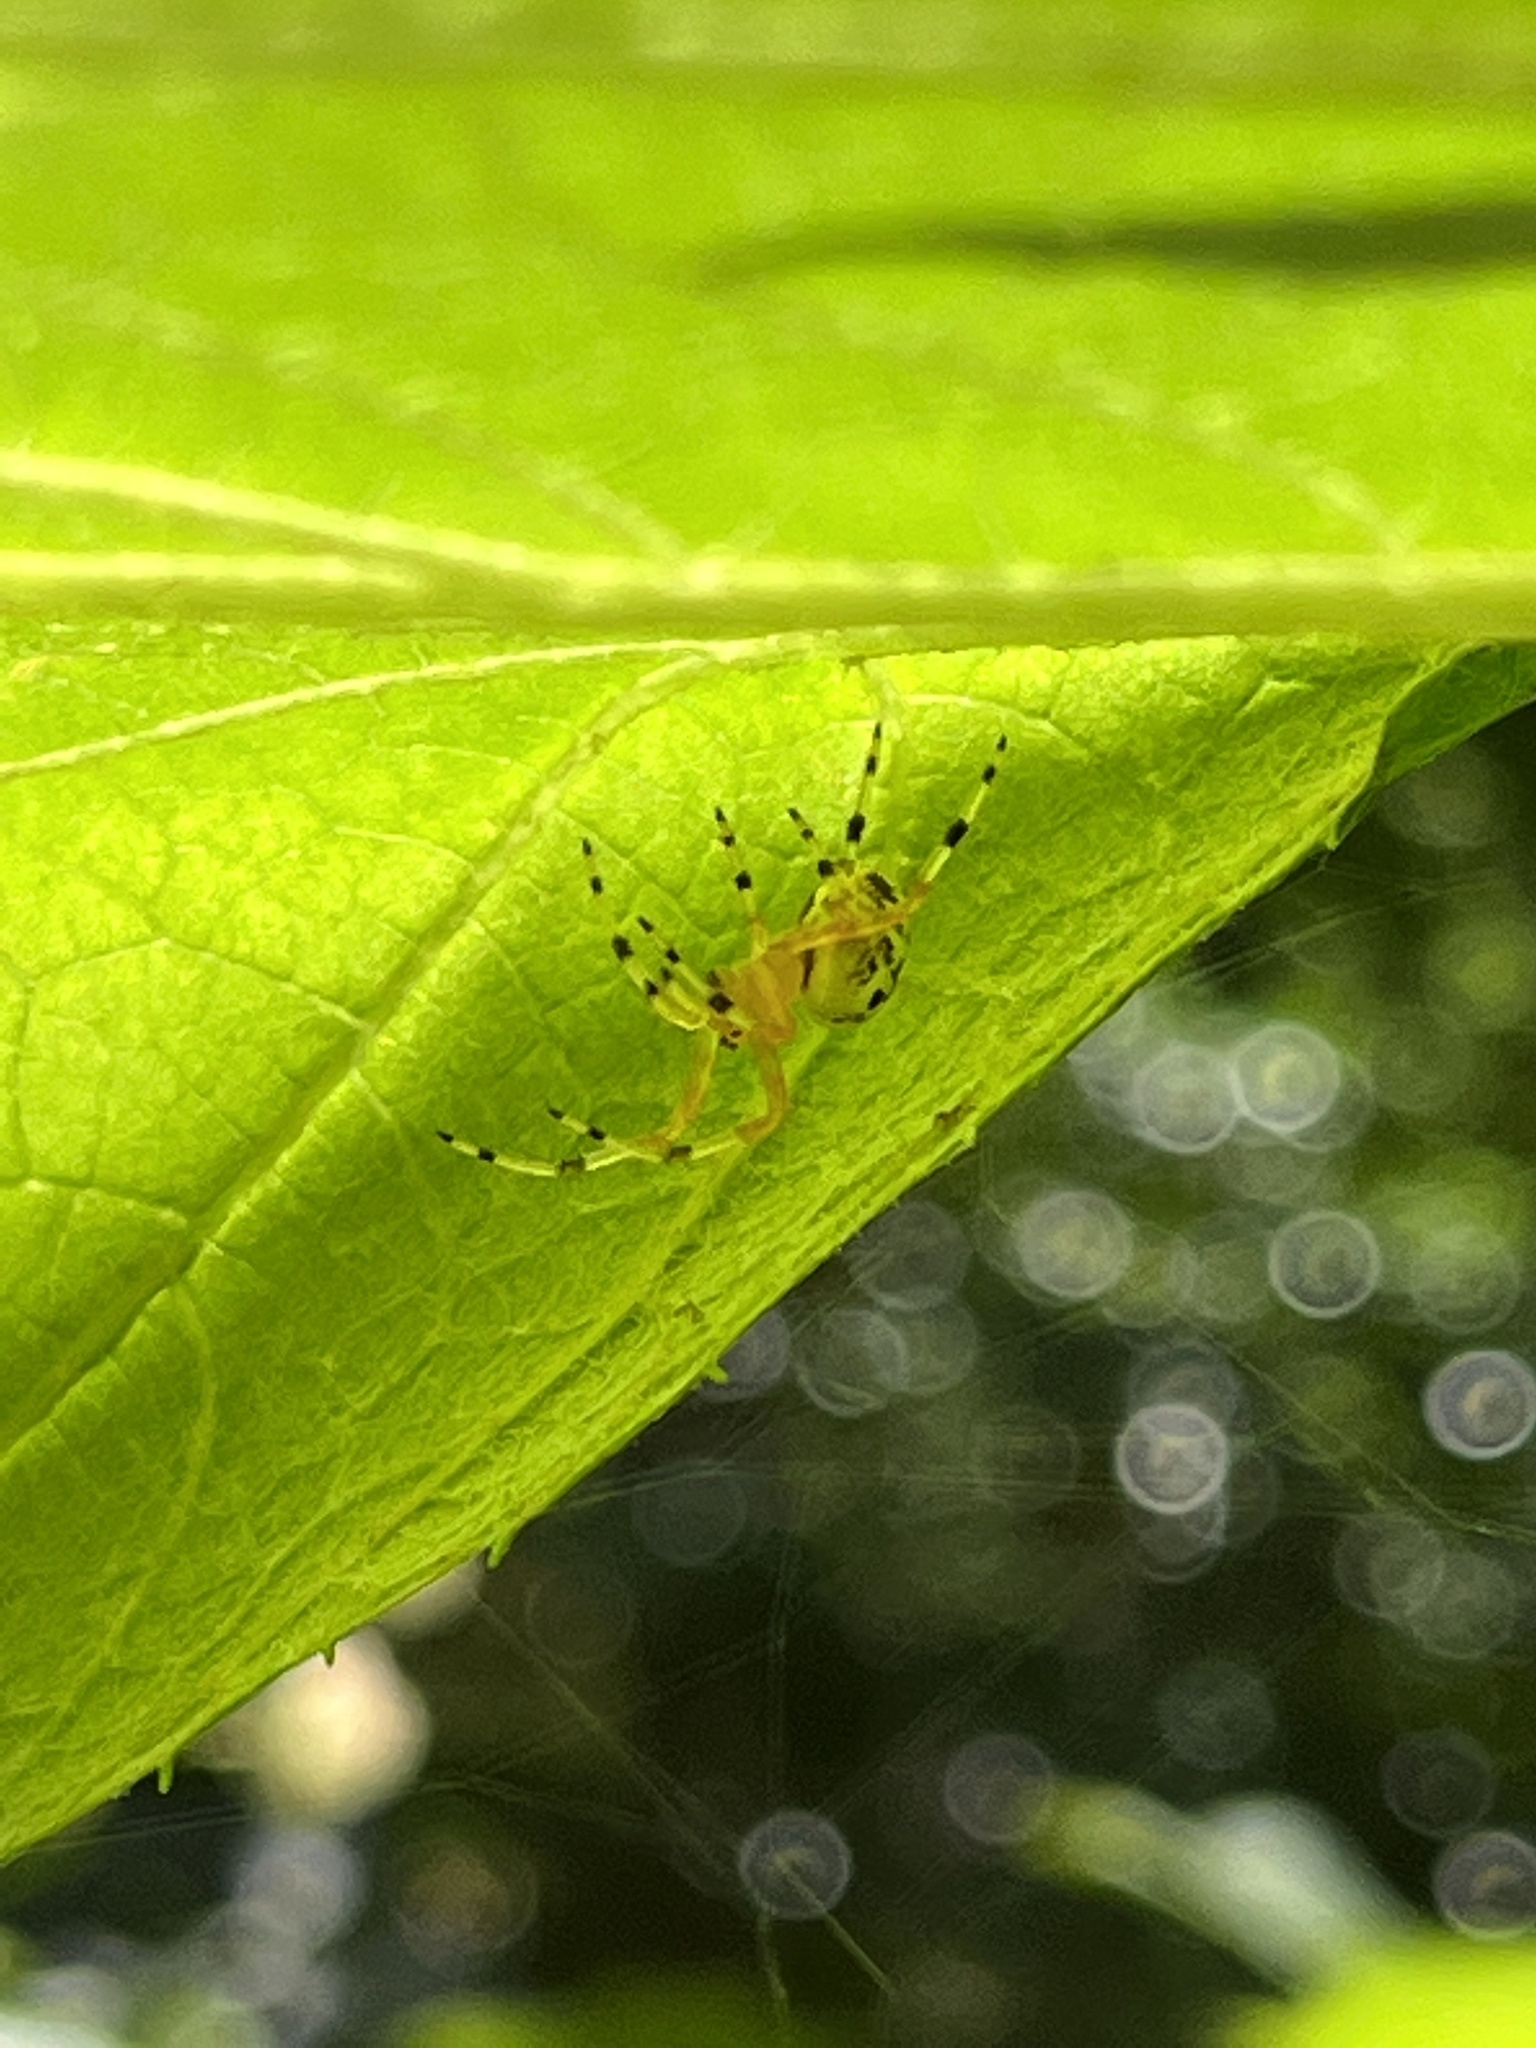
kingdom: Animalia
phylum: Arthropoda
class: Arachnida
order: Araneae
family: Araneidae
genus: Araneus
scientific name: Araneus marmoreus
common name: Marbled orbweaver
